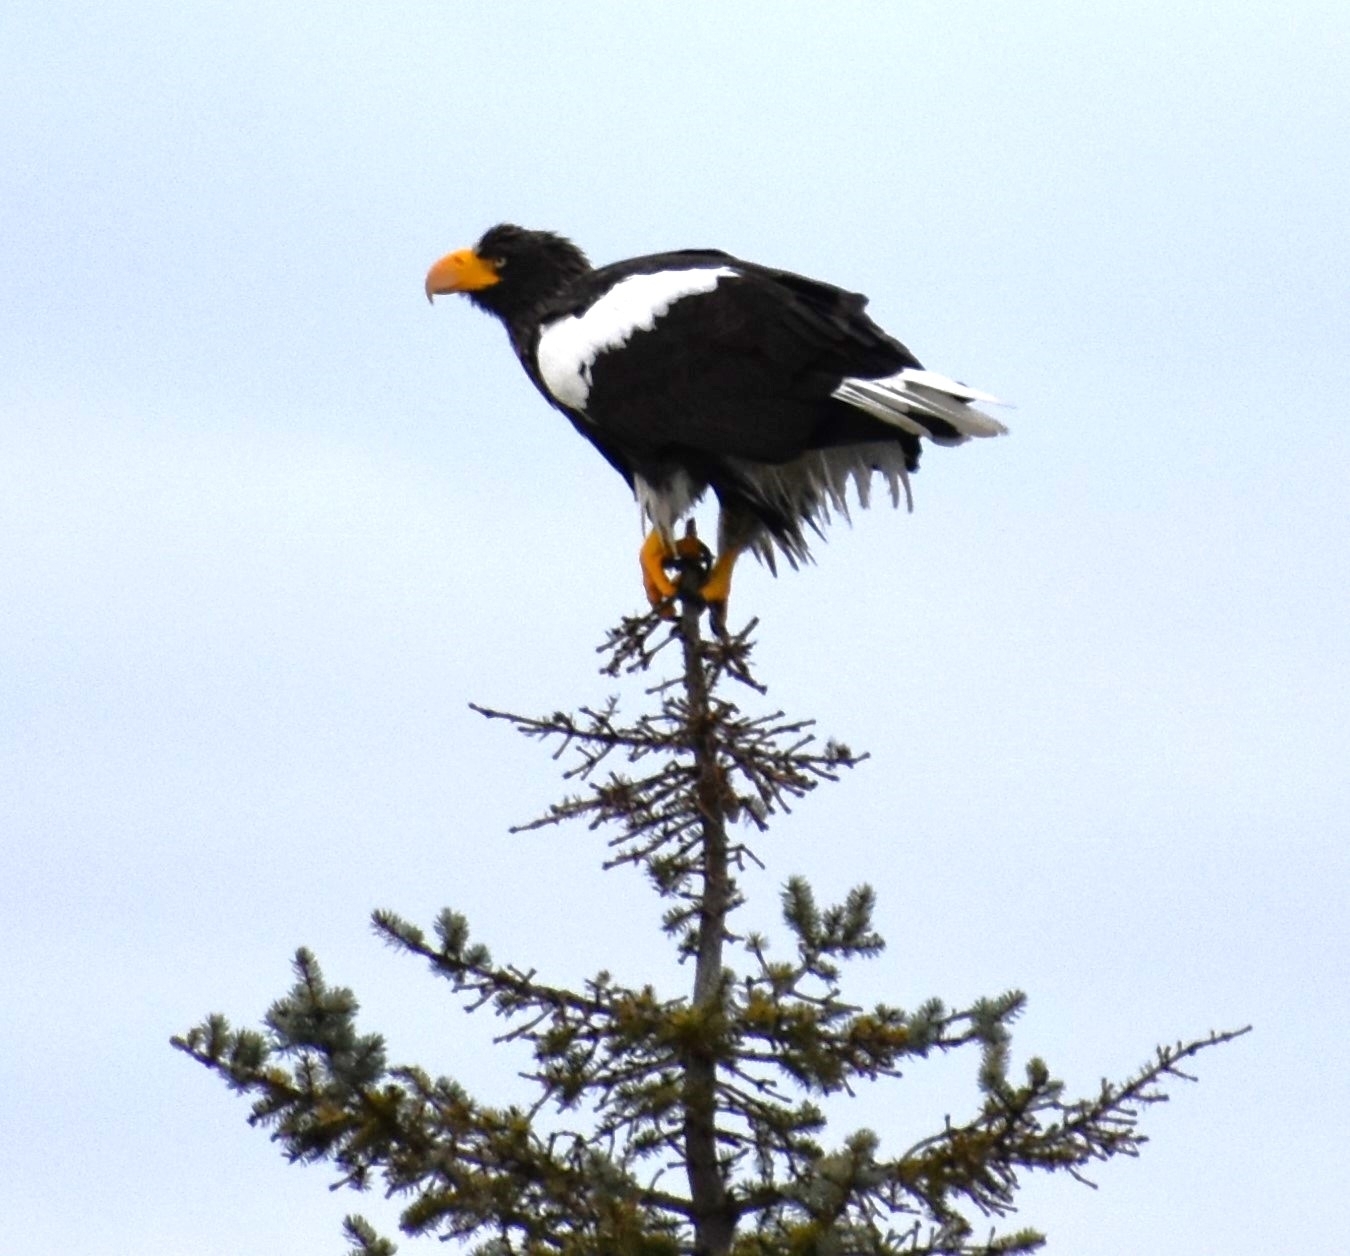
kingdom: Animalia
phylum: Chordata
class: Aves
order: Accipitriformes
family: Accipitridae
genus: Haliaeetus
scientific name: Haliaeetus pelagicus
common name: Steller's sea eagle
